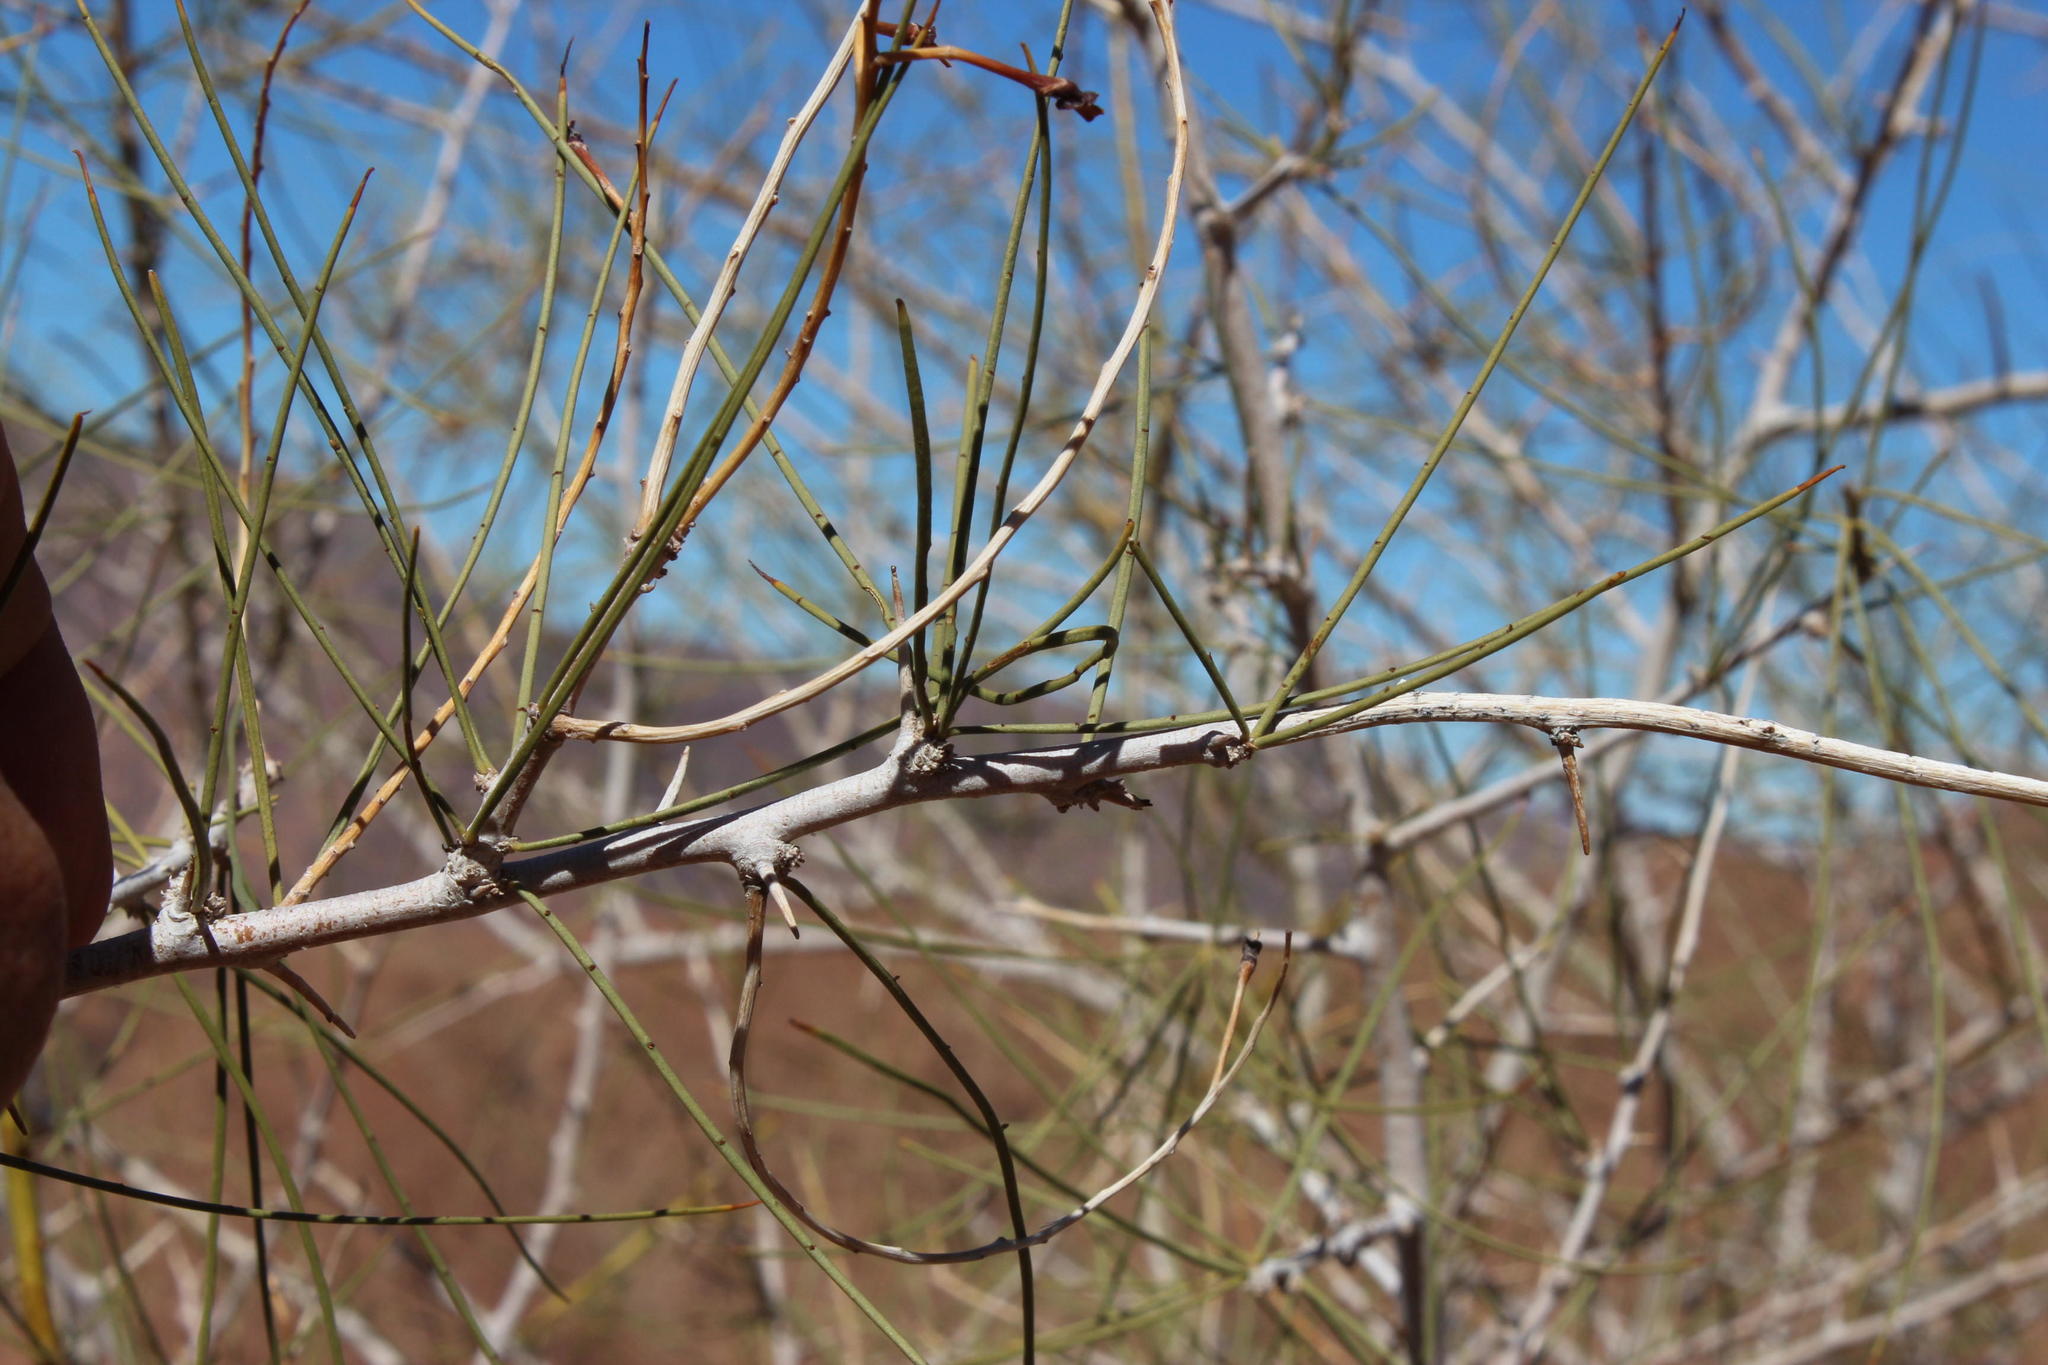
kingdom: Plantae
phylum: Tracheophyta
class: Magnoliopsida
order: Fabales
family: Fabaceae
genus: Parkinsonia
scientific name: Parkinsonia africana
